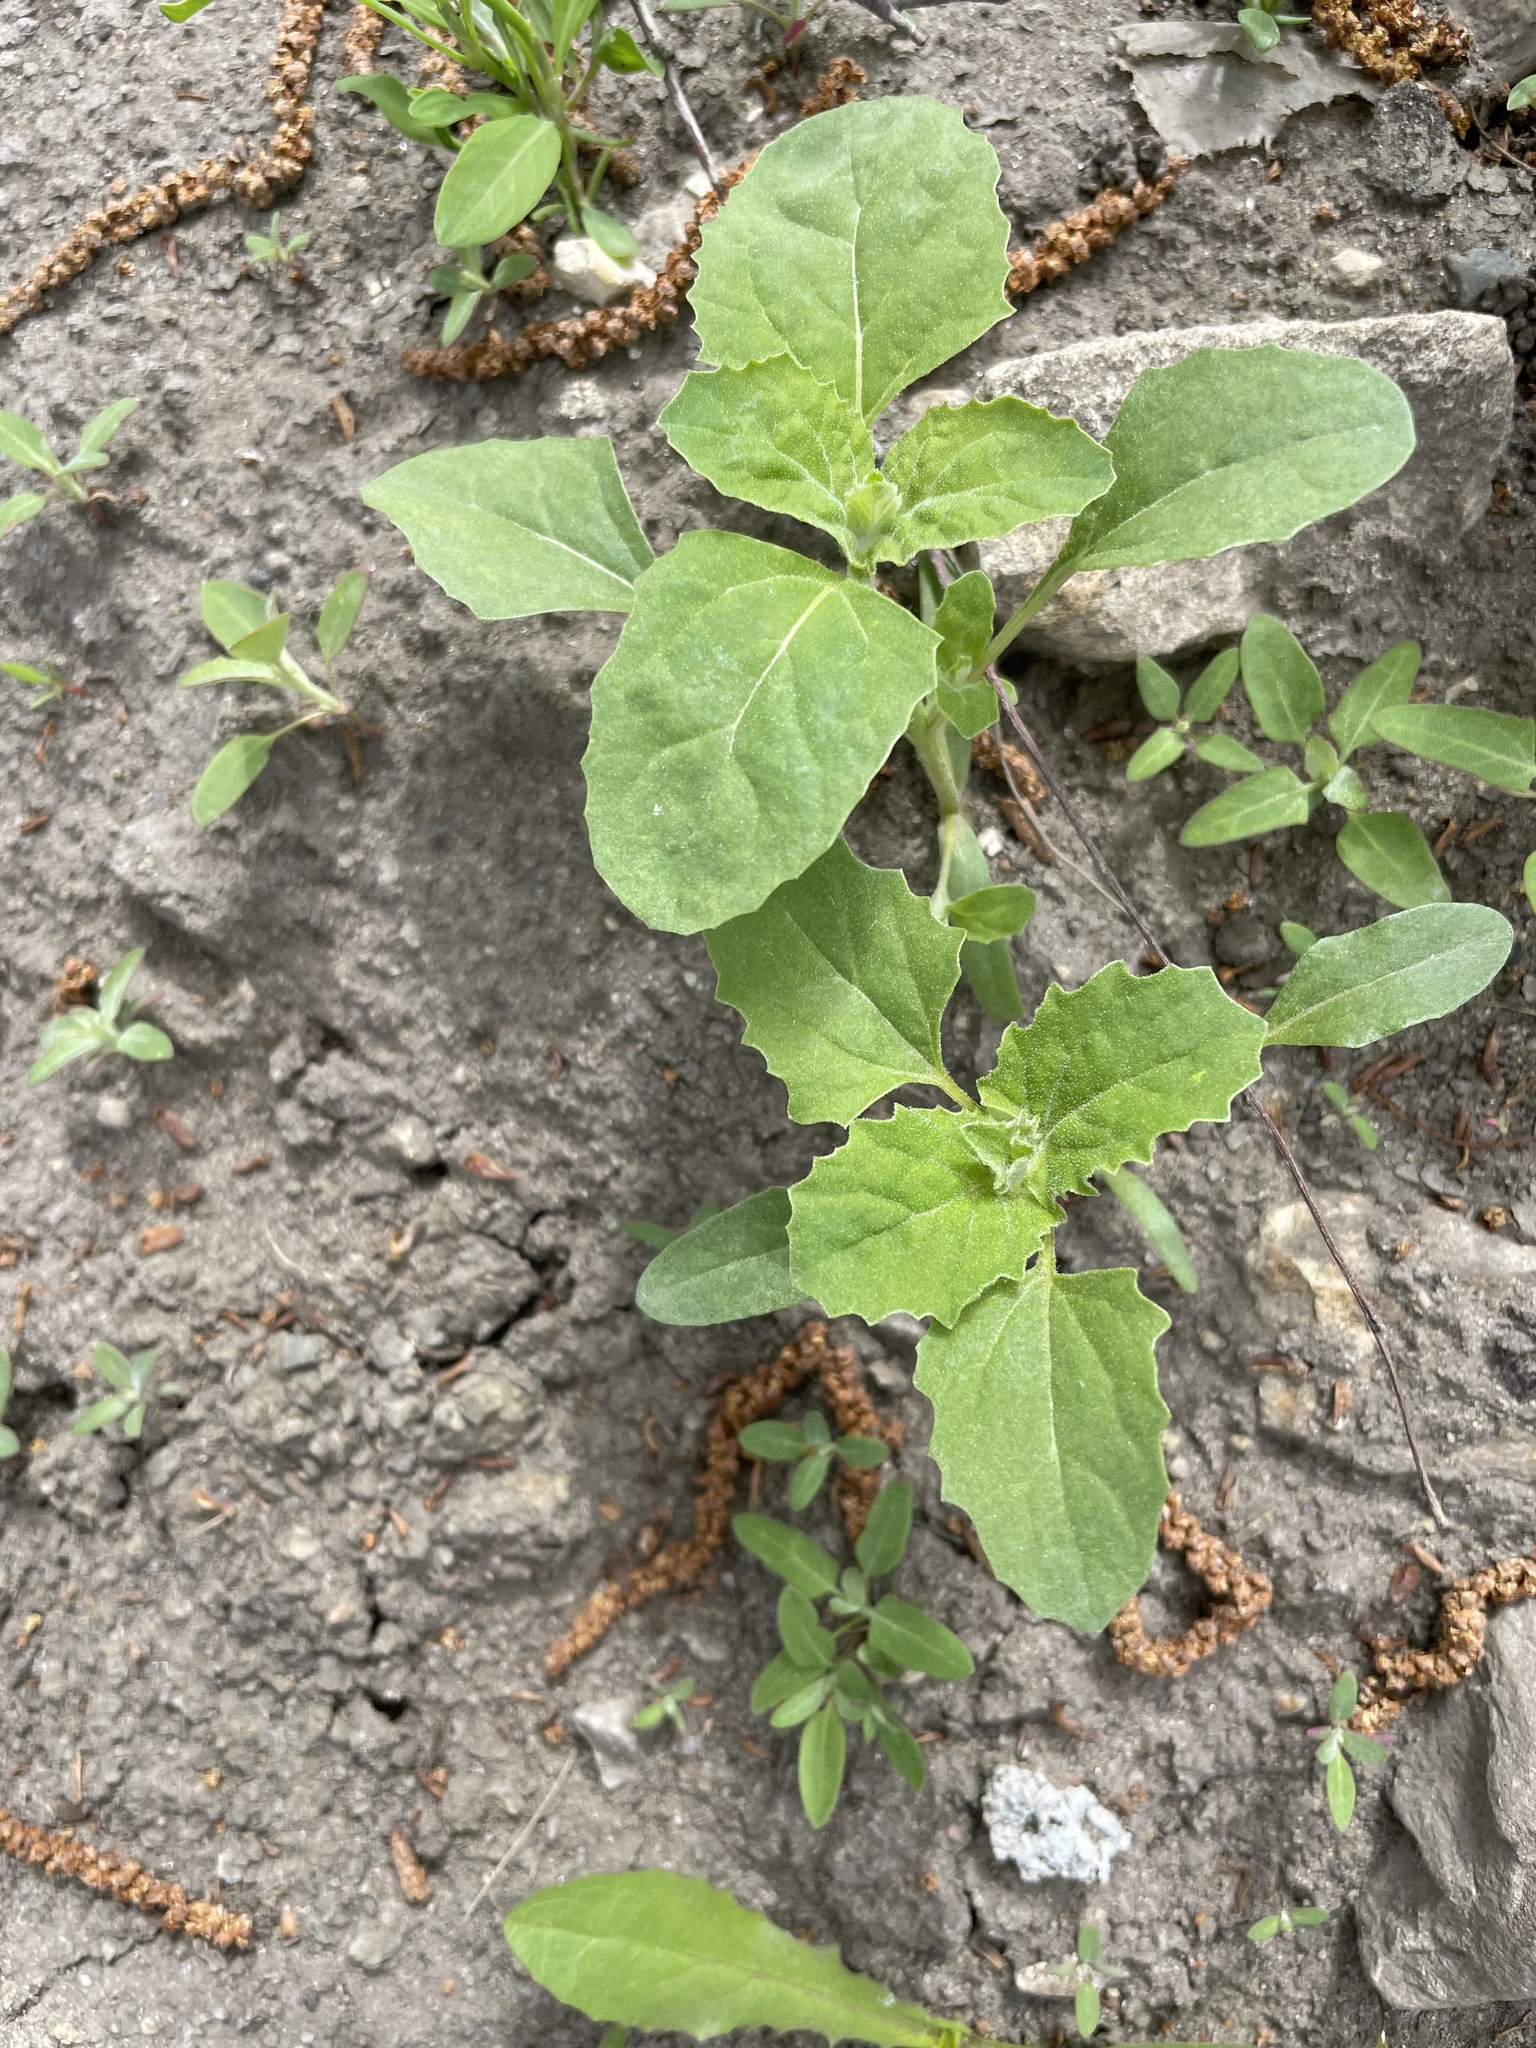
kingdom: Plantae
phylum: Tracheophyta
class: Magnoliopsida
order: Caryophyllales
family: Amaranthaceae
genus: Atriplex
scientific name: Atriplex tatarica
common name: Tatarian orache
